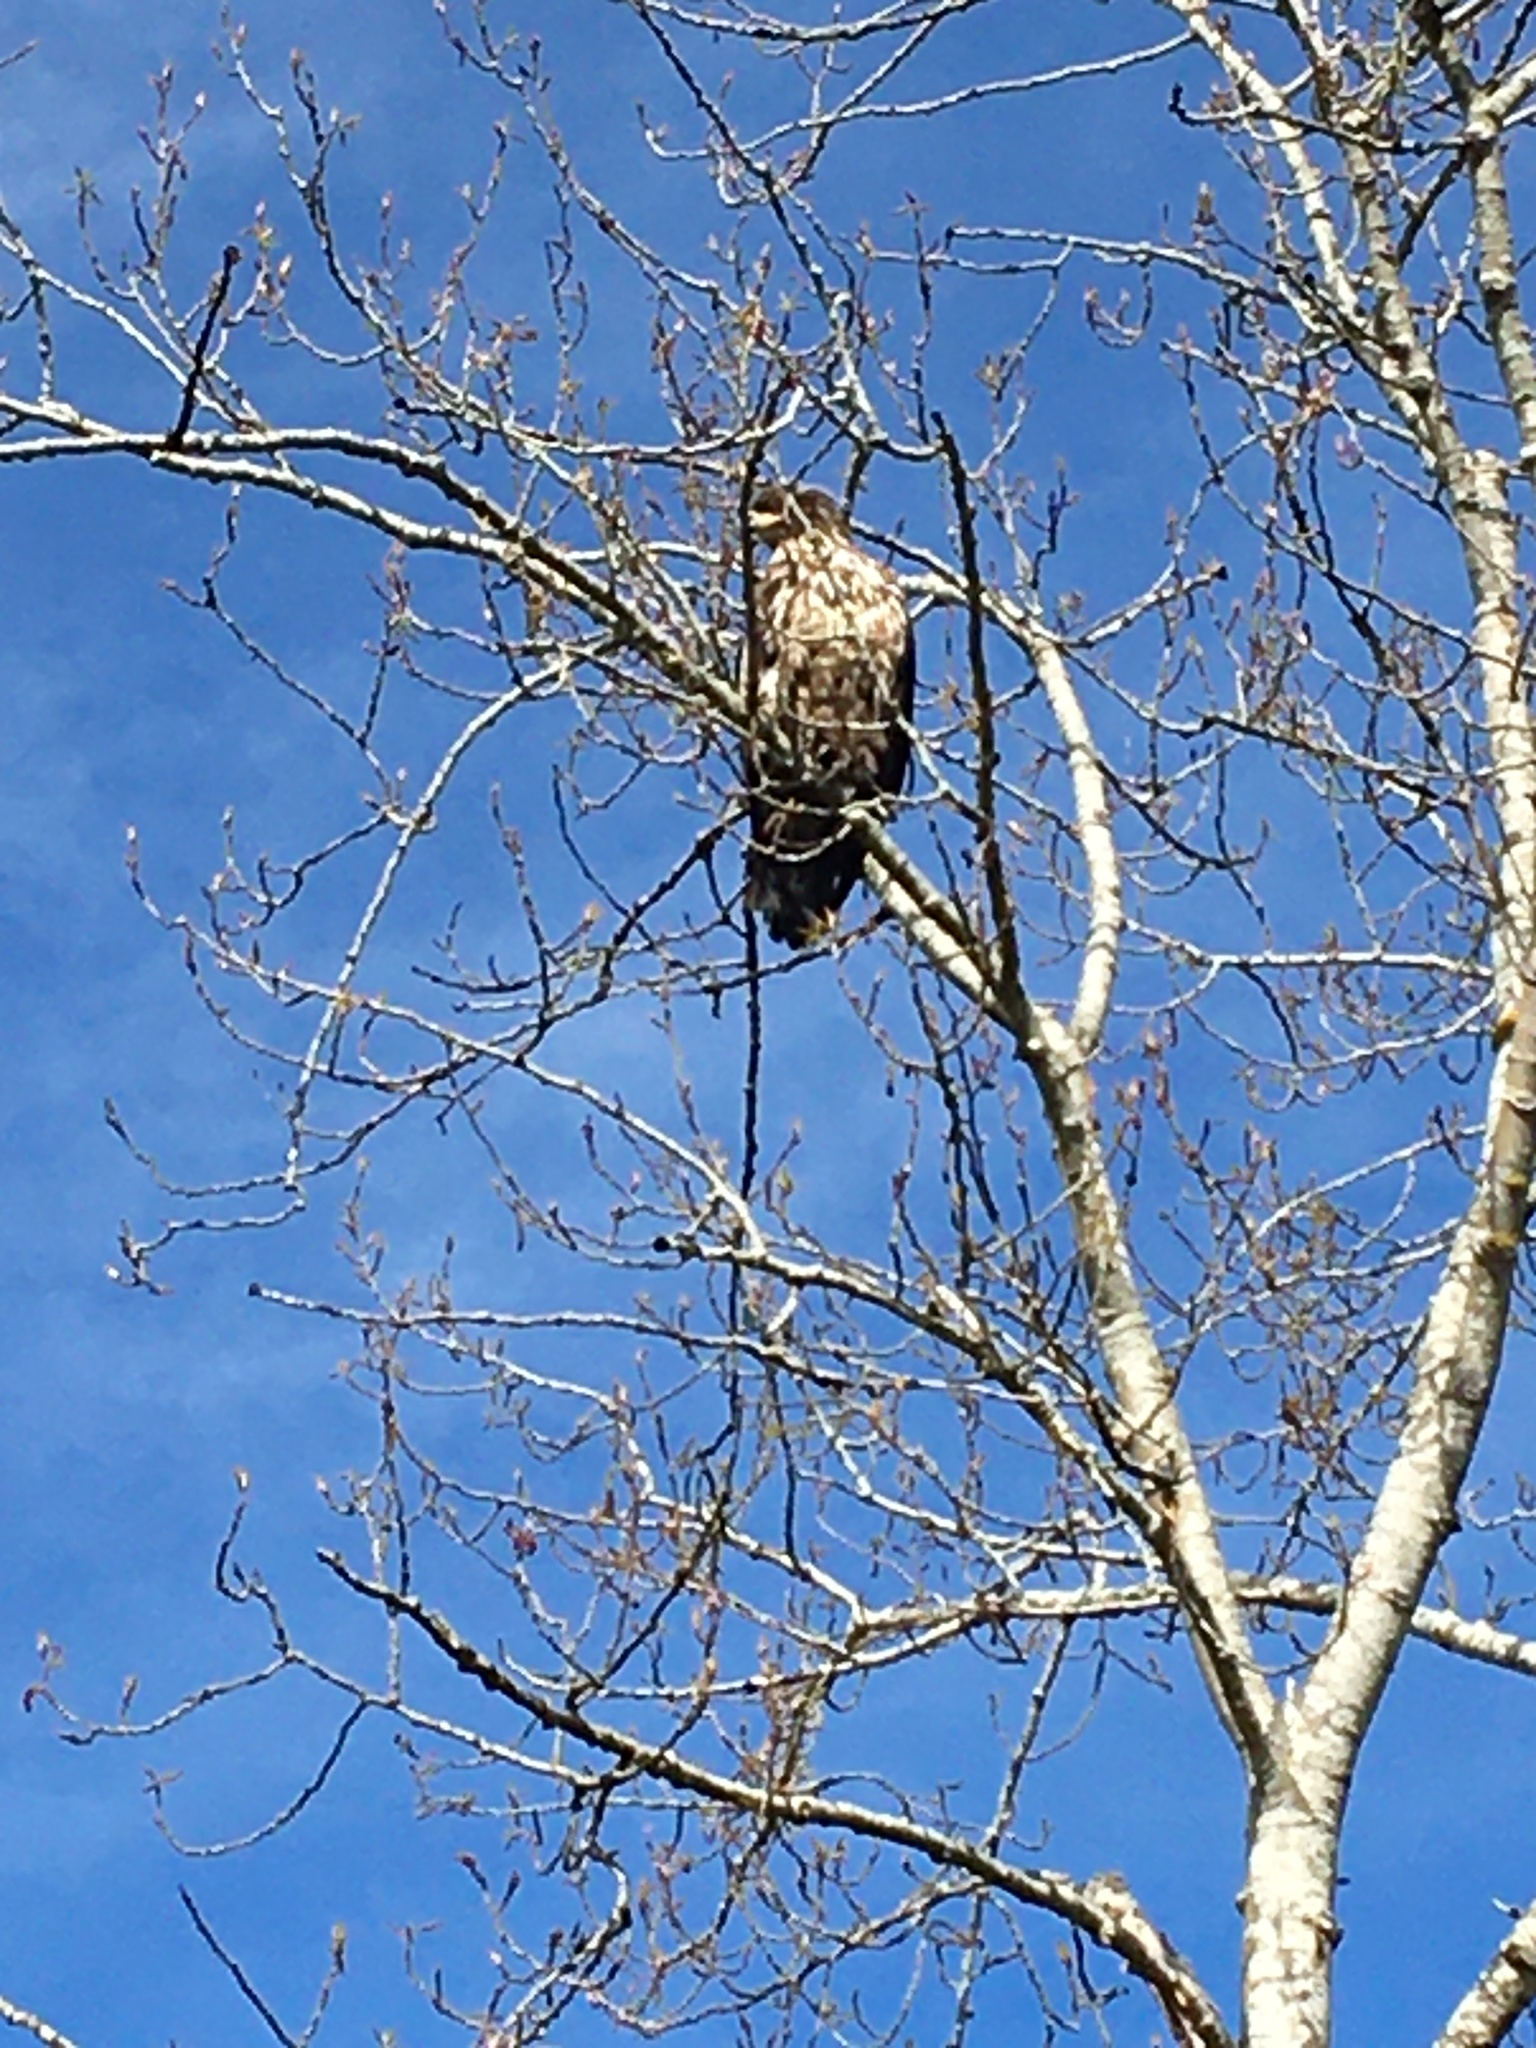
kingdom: Animalia
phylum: Chordata
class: Aves
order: Accipitriformes
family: Accipitridae
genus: Haliaeetus
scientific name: Haliaeetus leucocephalus
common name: Bald eagle
